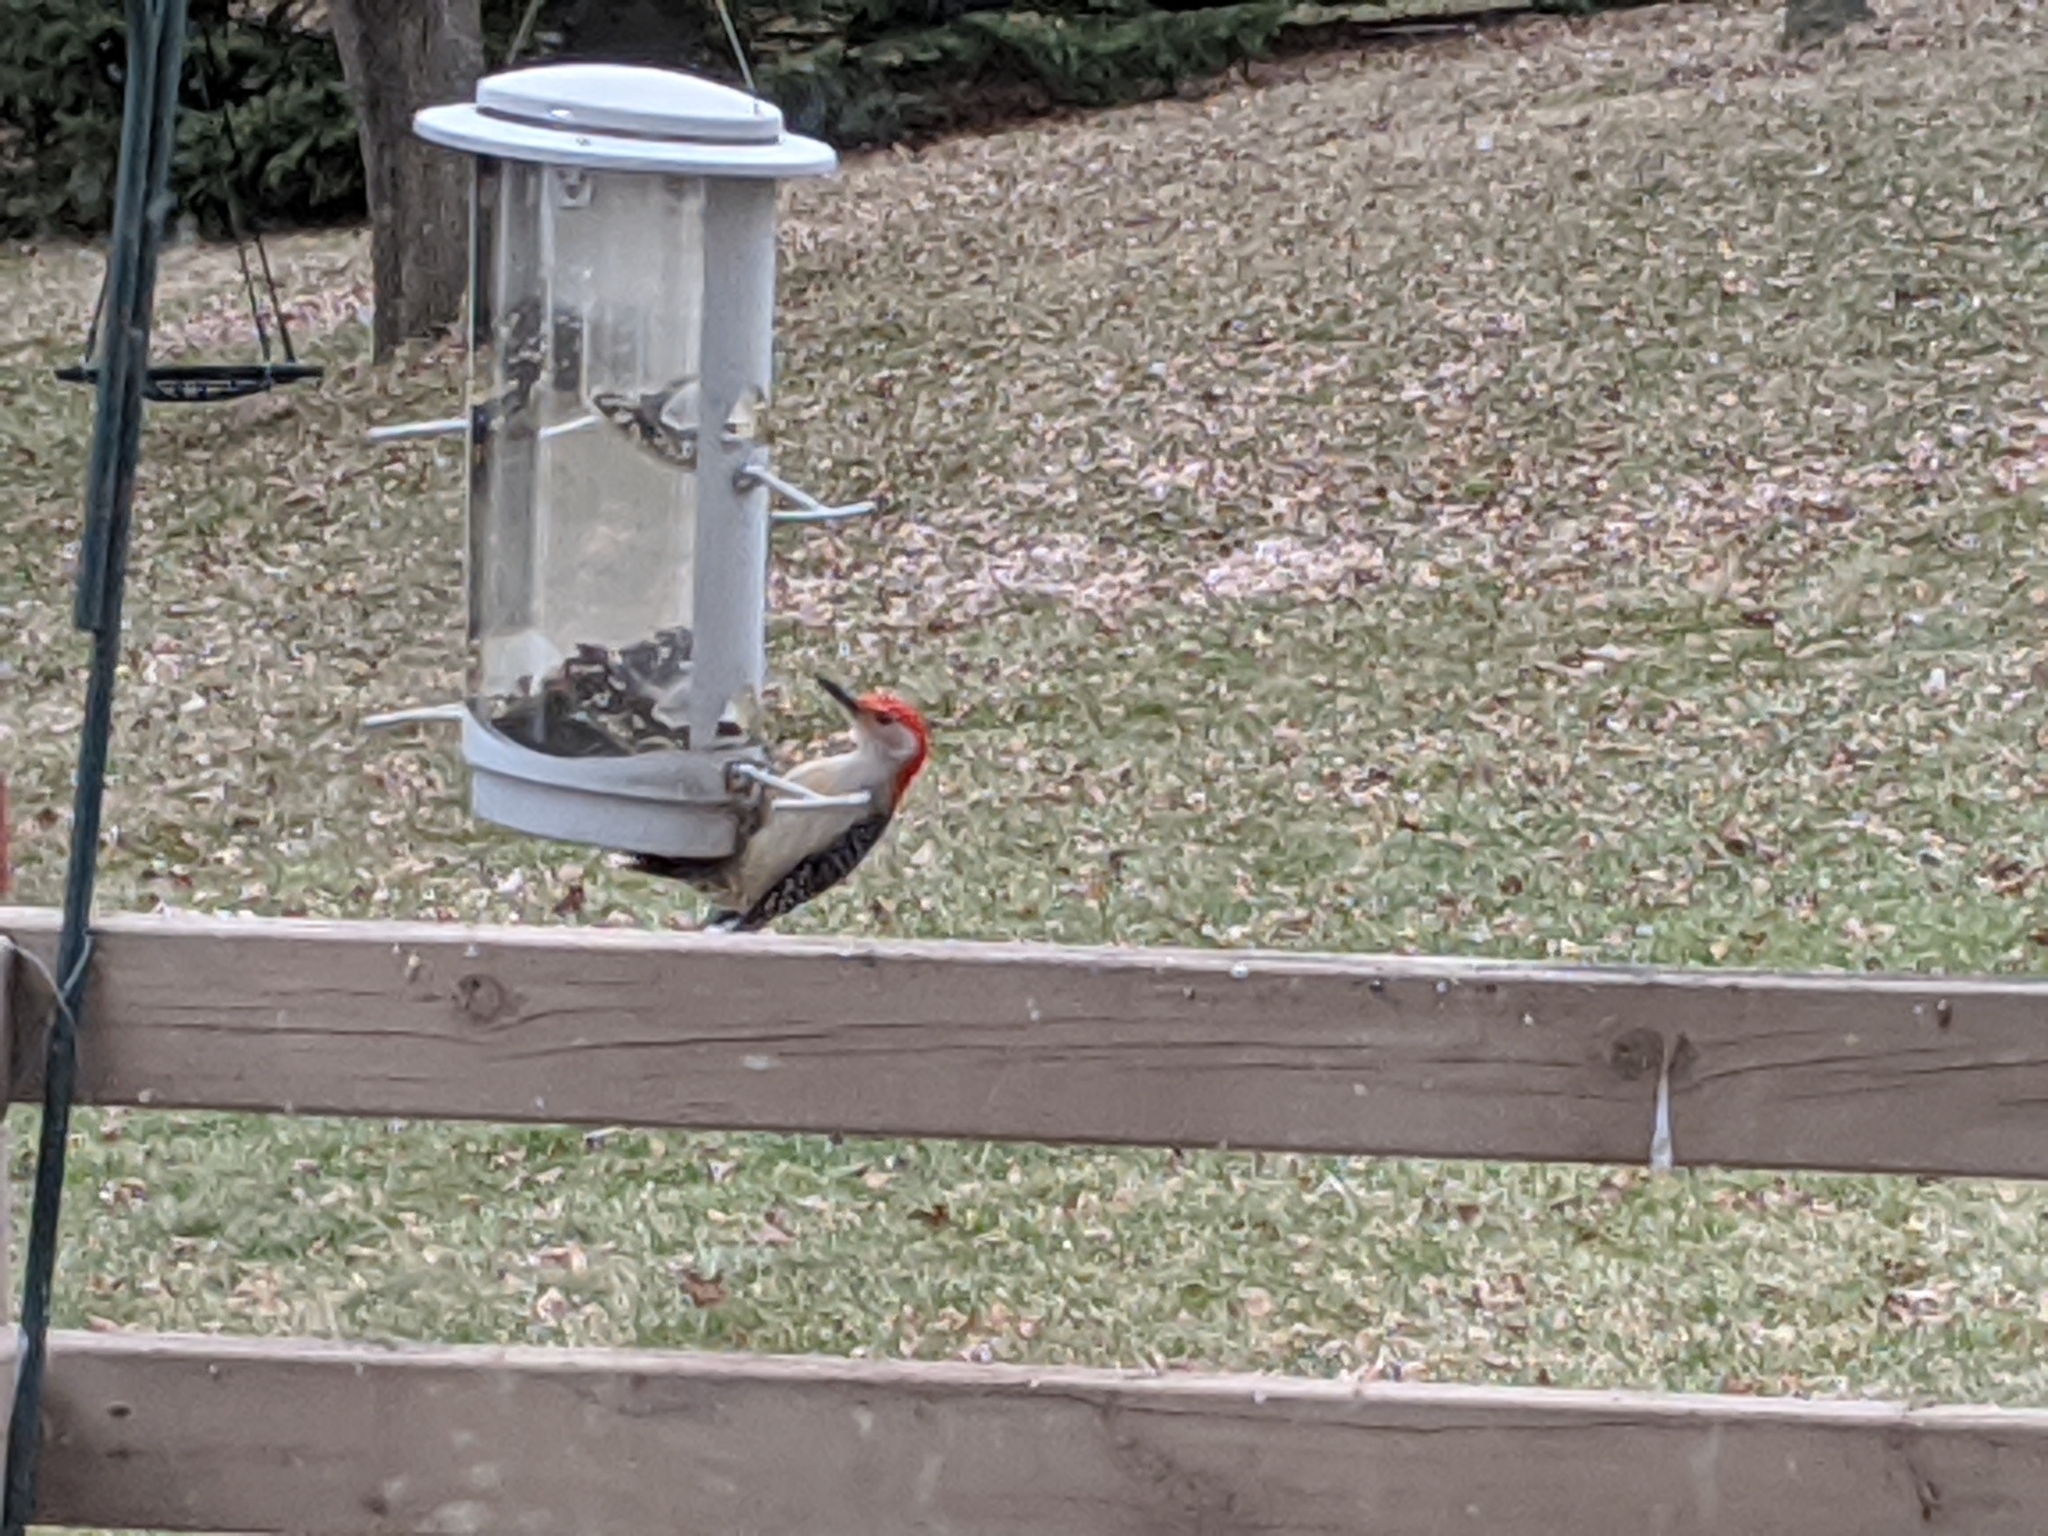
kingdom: Animalia
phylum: Chordata
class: Aves
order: Piciformes
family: Picidae
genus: Melanerpes
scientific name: Melanerpes carolinus
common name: Red-bellied woodpecker
